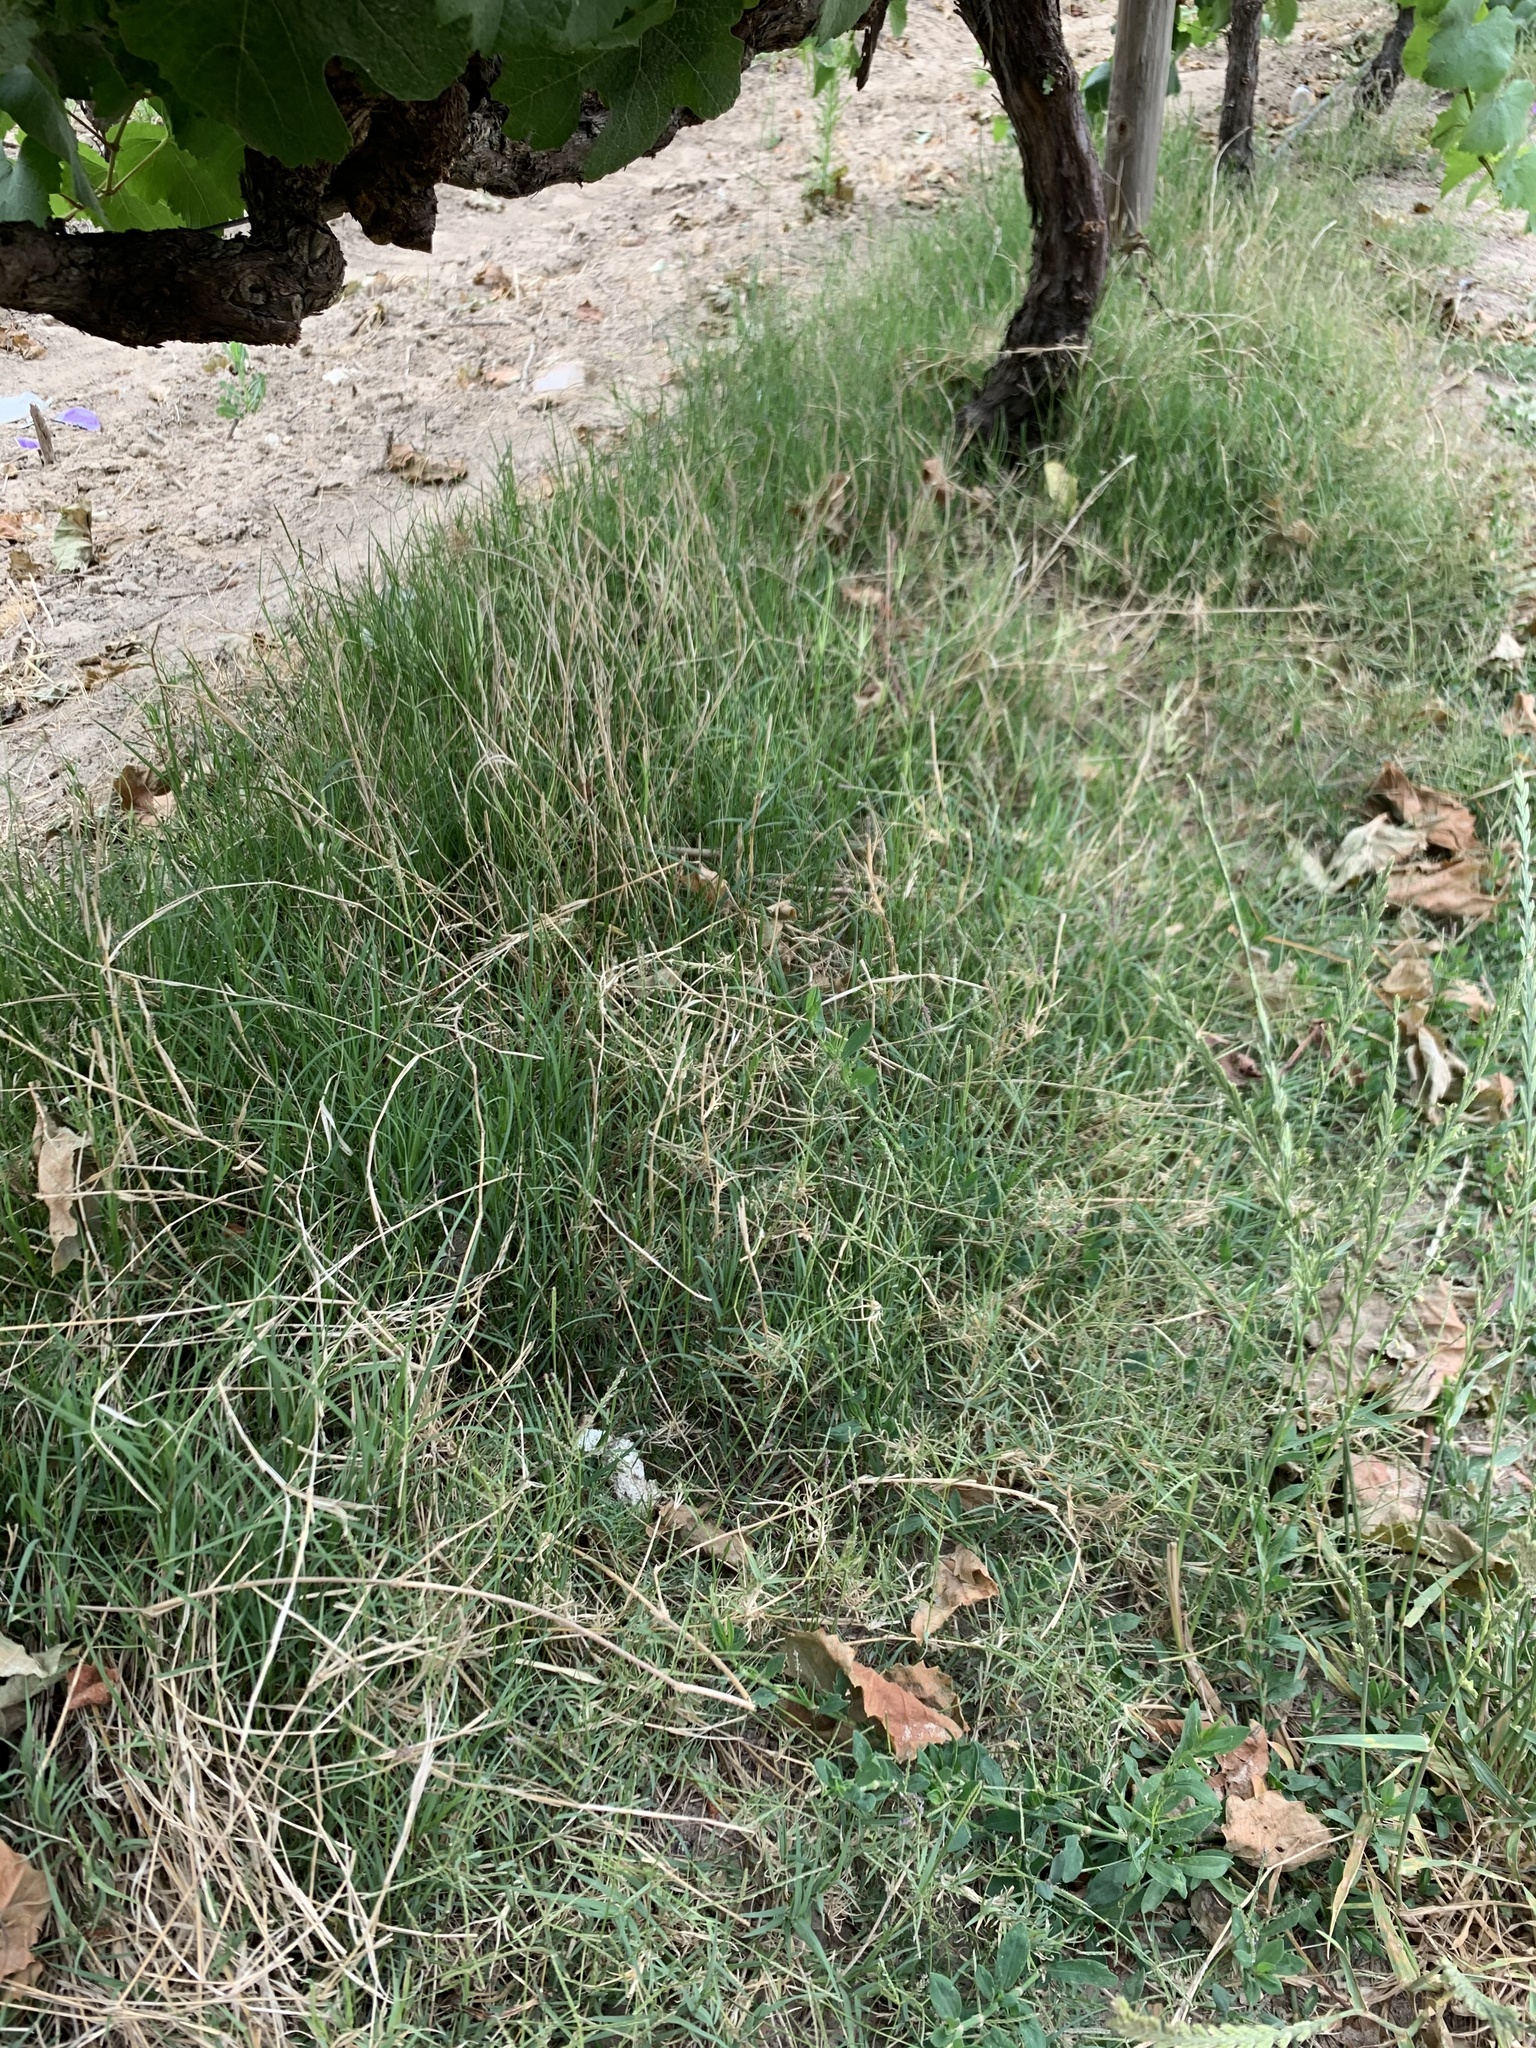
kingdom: Plantae
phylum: Tracheophyta
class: Liliopsida
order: Poales
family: Poaceae
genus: Cynodon
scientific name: Cynodon dactylon
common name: Bermuda grass
